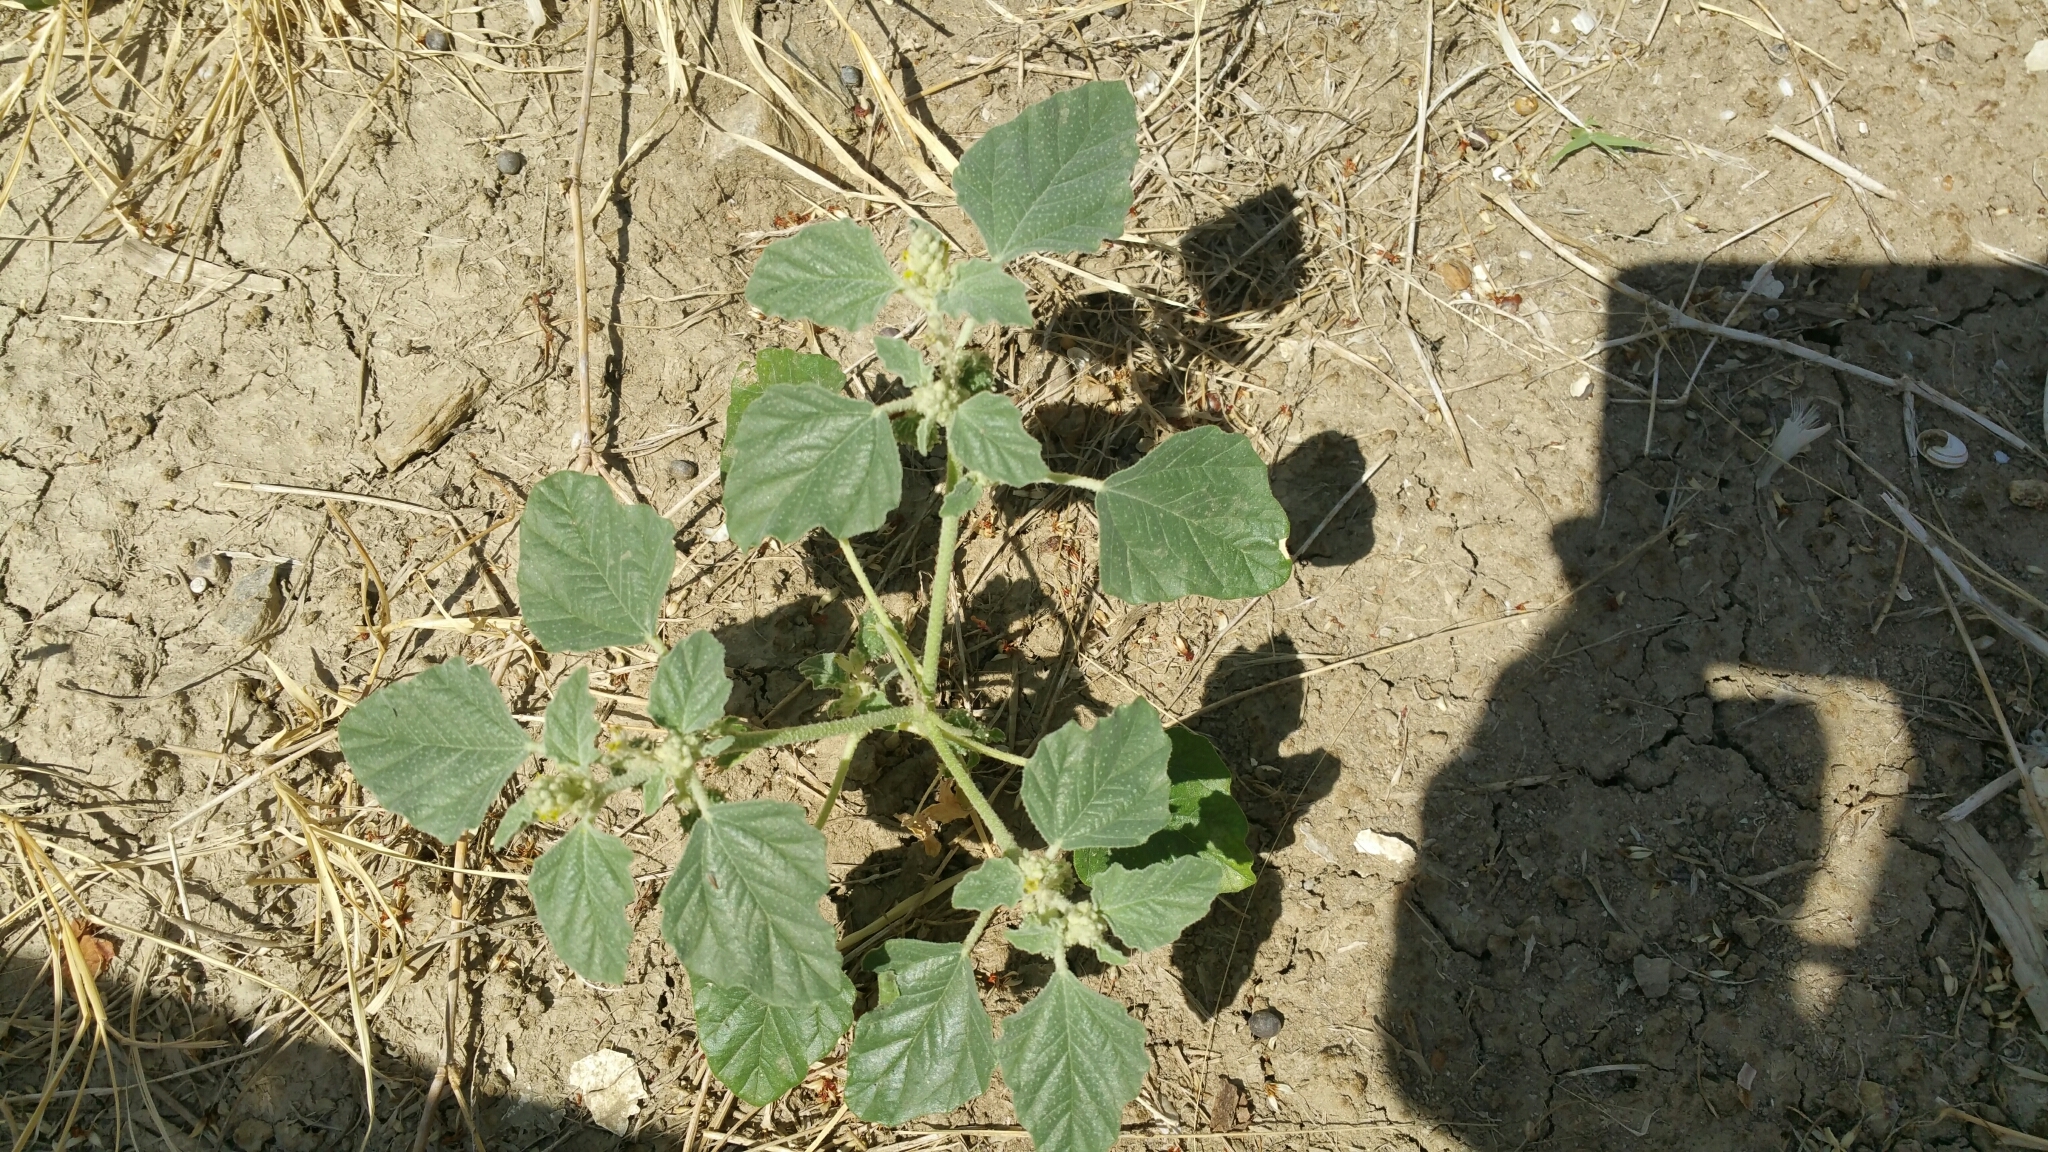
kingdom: Plantae
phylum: Tracheophyta
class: Magnoliopsida
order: Malpighiales
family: Euphorbiaceae
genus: Chrozophora
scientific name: Chrozophora tinctoria
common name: Dyer's litmus
